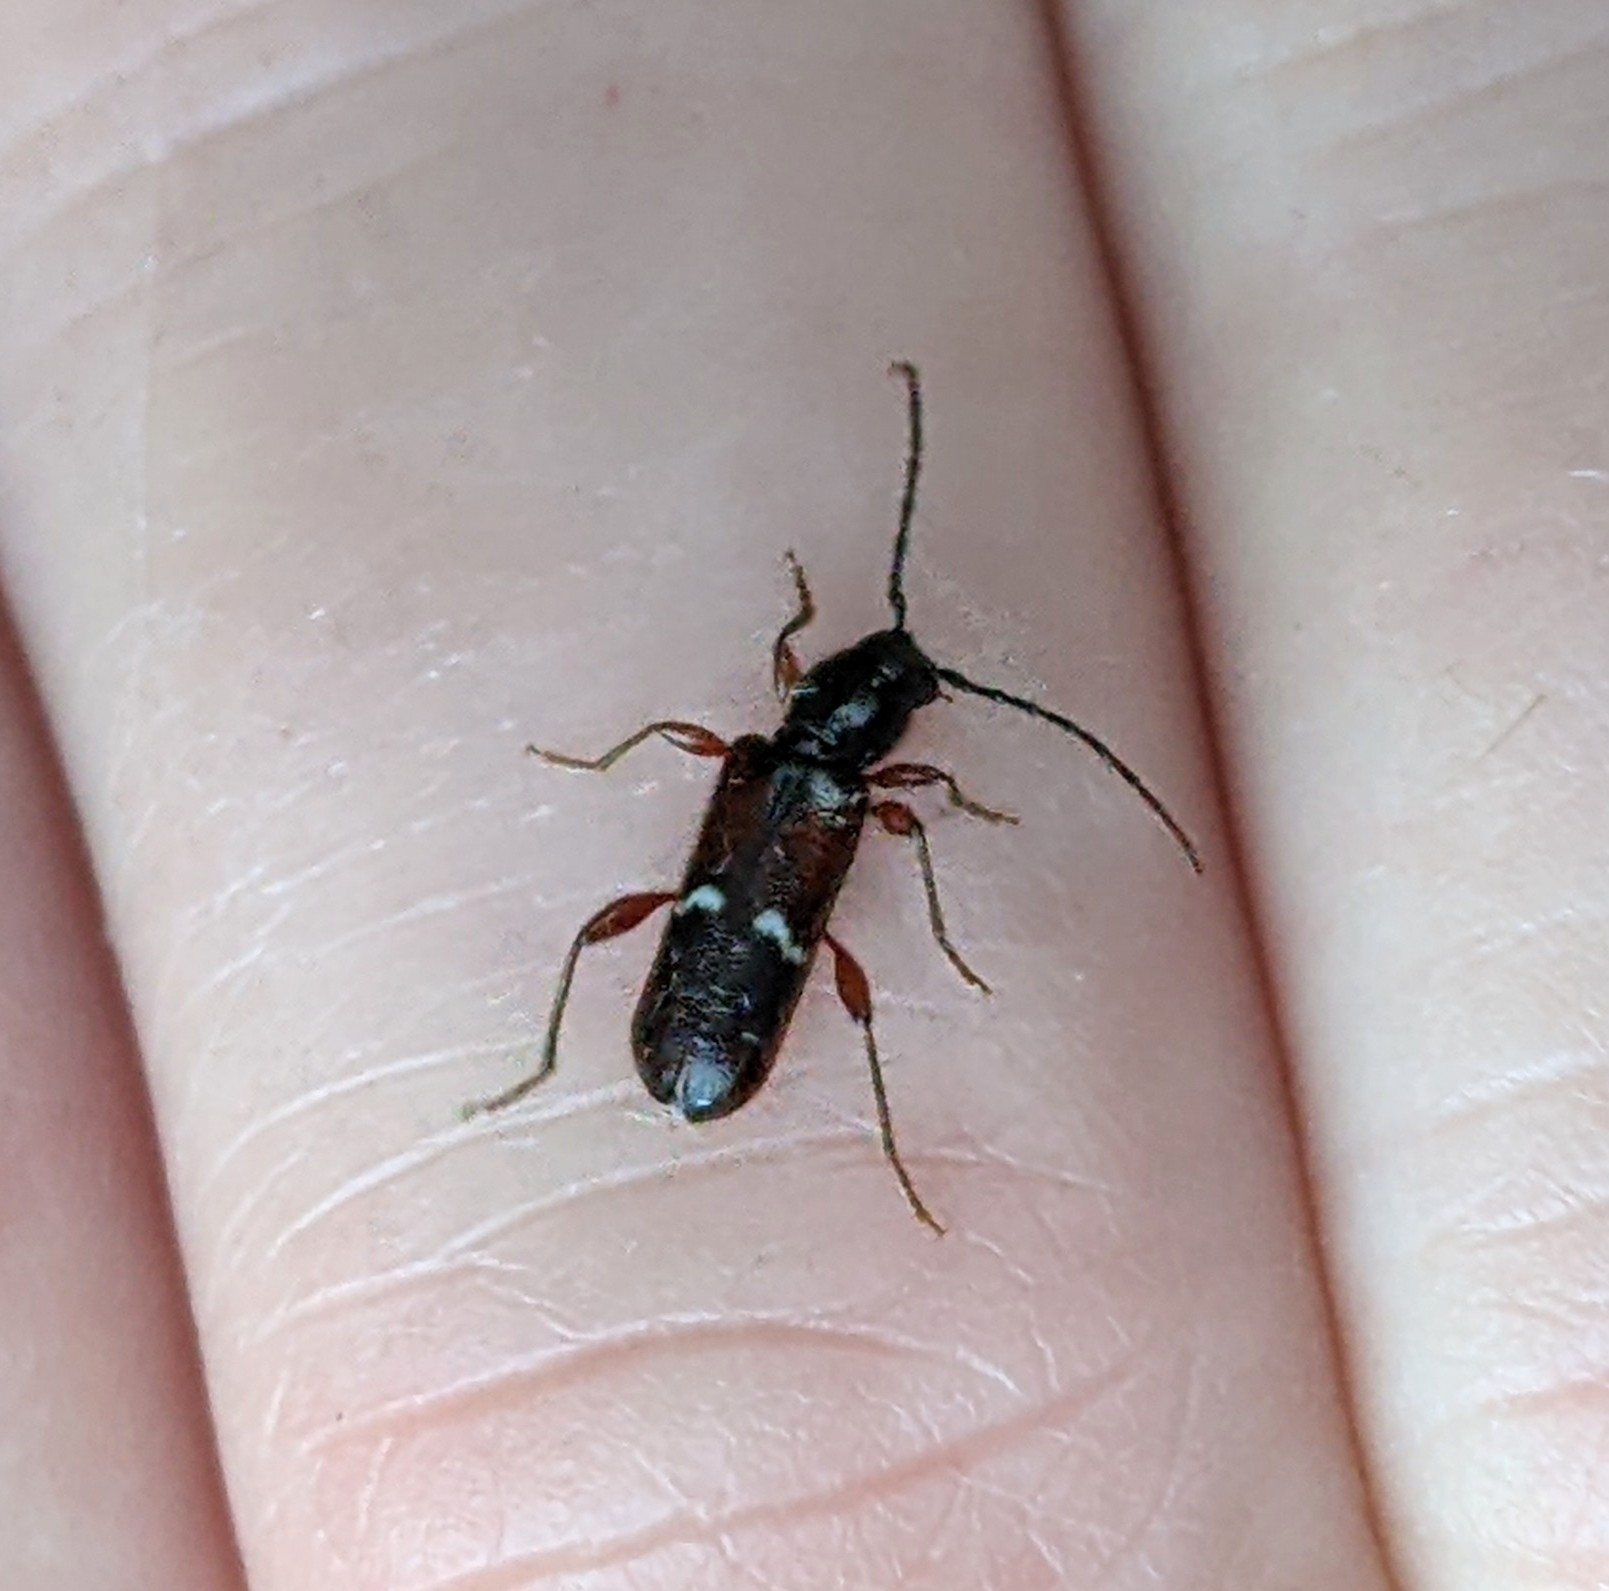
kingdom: Animalia
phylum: Arthropoda
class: Insecta
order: Coleoptera
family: Cerambycidae
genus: Phymatodes
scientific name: Phymatodes vulneratus
